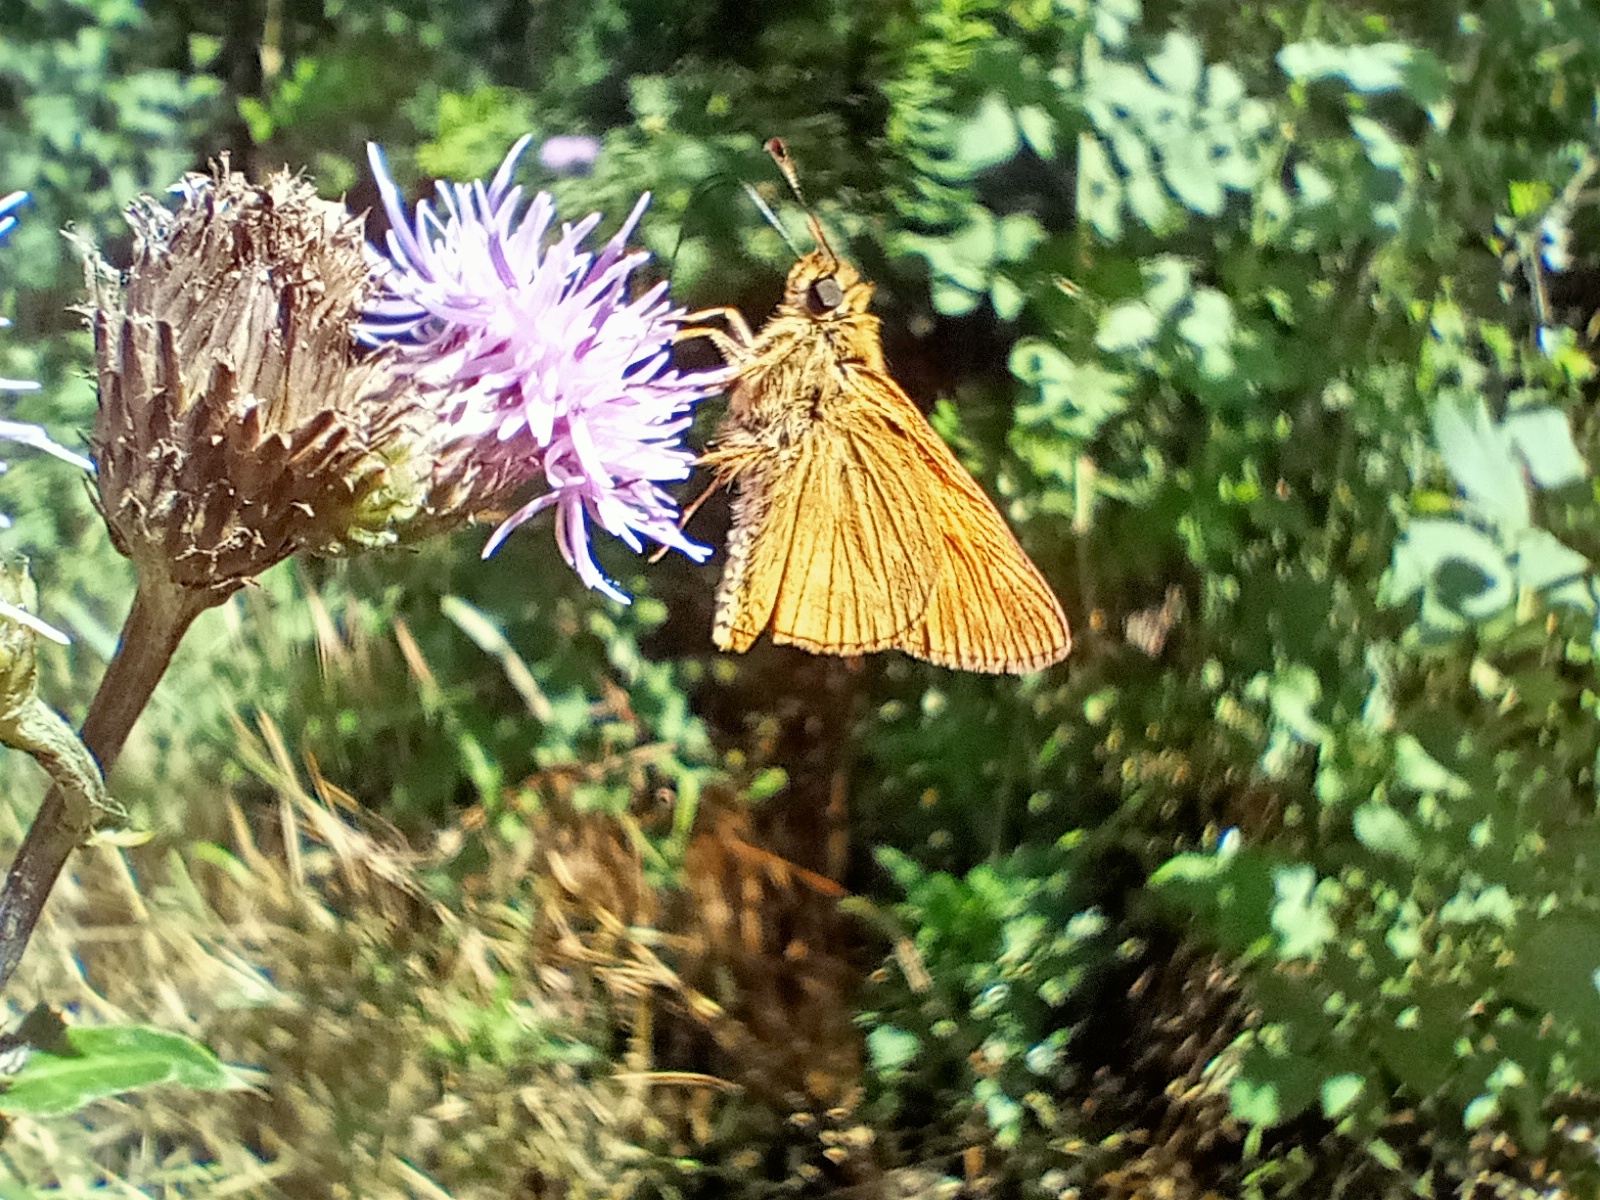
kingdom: Animalia
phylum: Arthropoda
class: Insecta
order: Lepidoptera
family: Hesperiidae
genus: Ochlodes
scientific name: Ochlodes venata
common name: Large skipper
